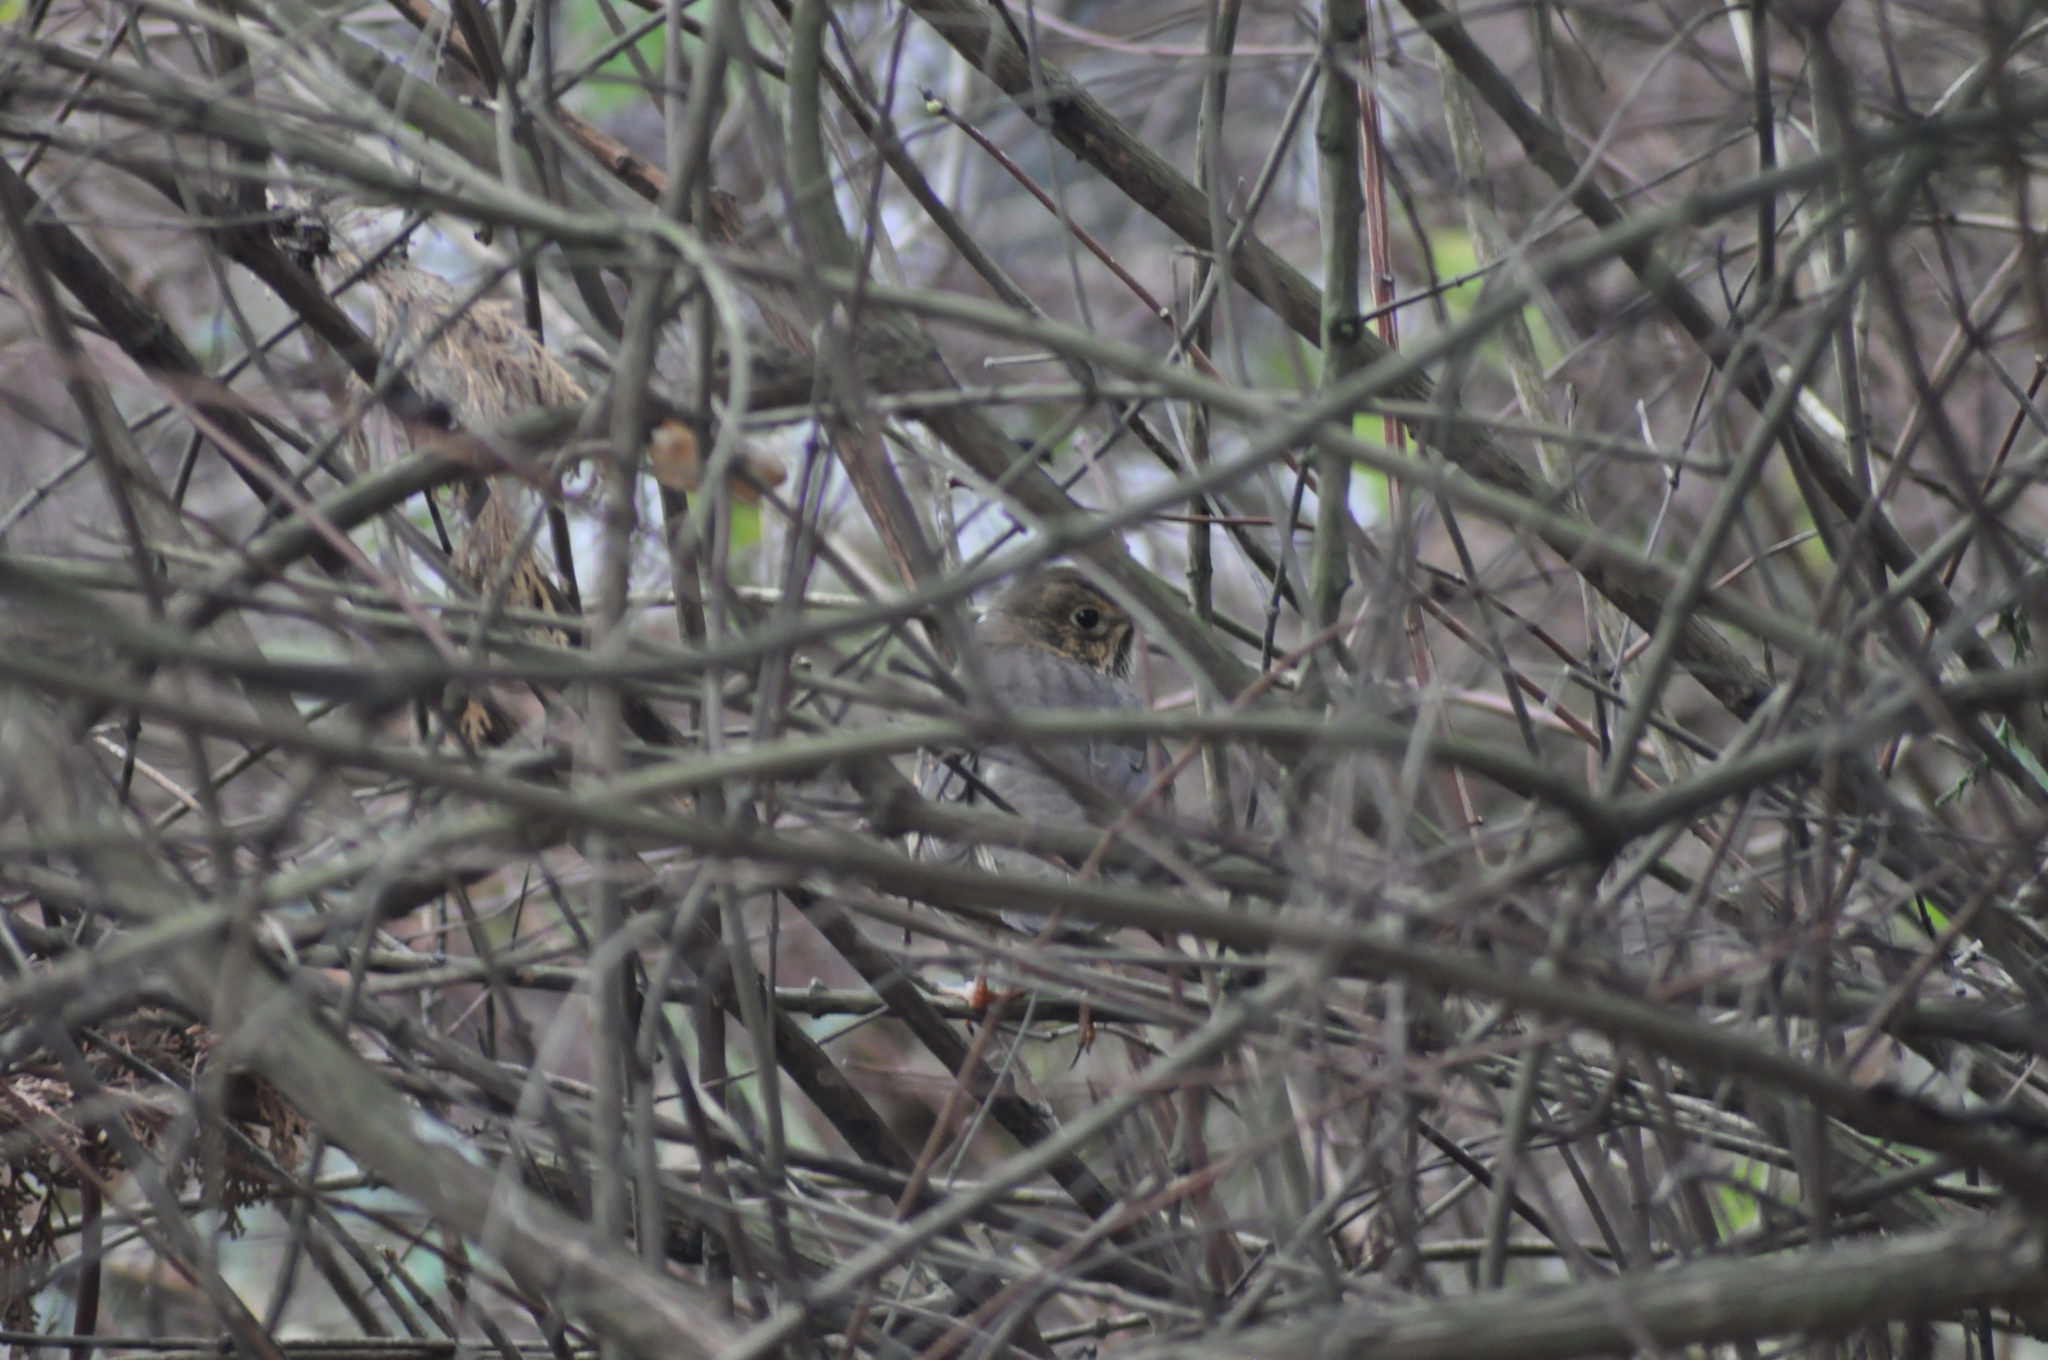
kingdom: Animalia
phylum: Chordata
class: Aves
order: Passeriformes
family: Turdidae
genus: Turdus
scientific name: Turdus philomelos
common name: Song thrush
